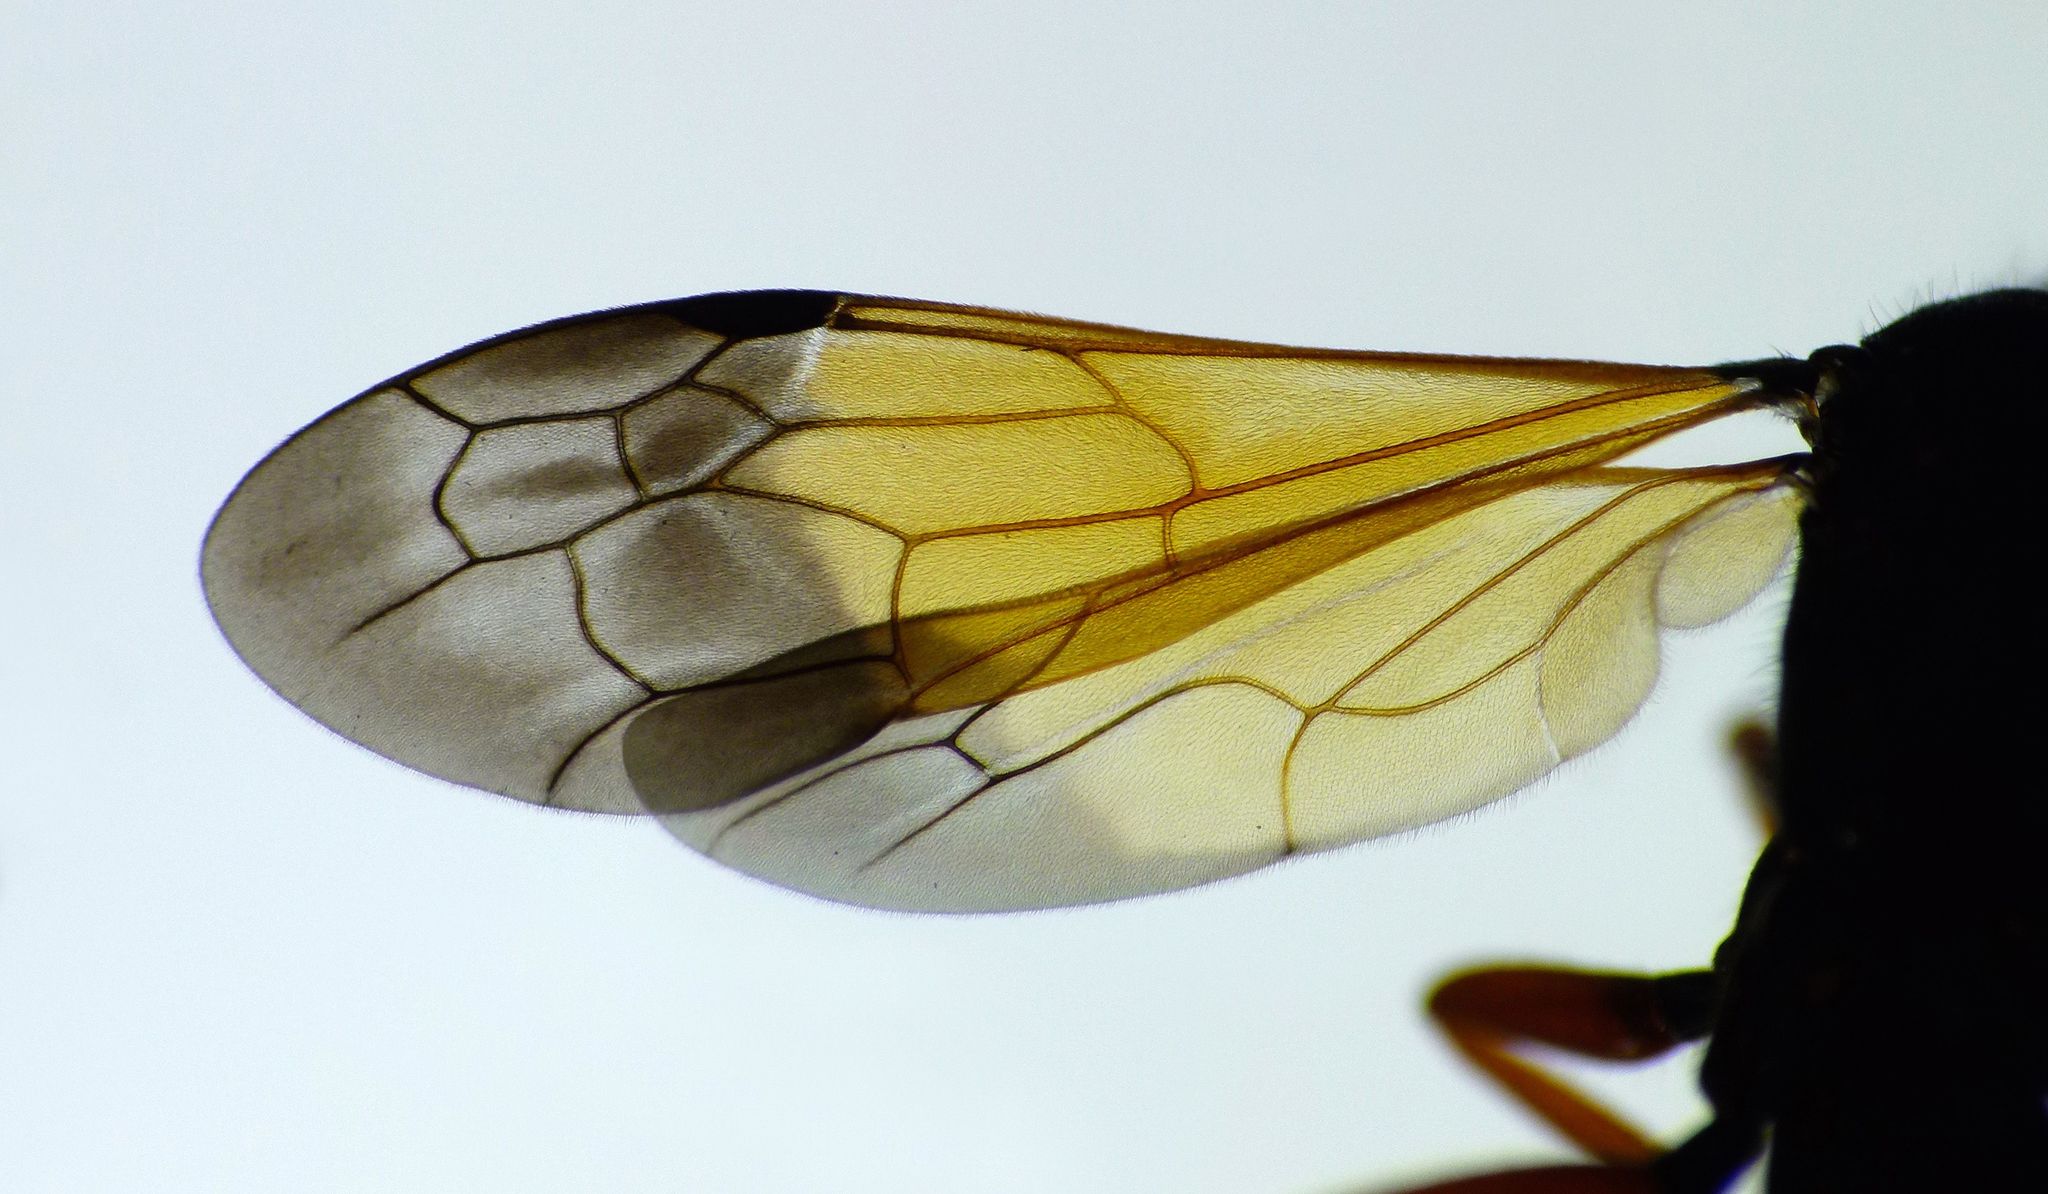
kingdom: Animalia
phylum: Arthropoda
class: Insecta
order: Hymenoptera
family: Pompilidae
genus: Priocnemis
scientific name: Priocnemis conformis
